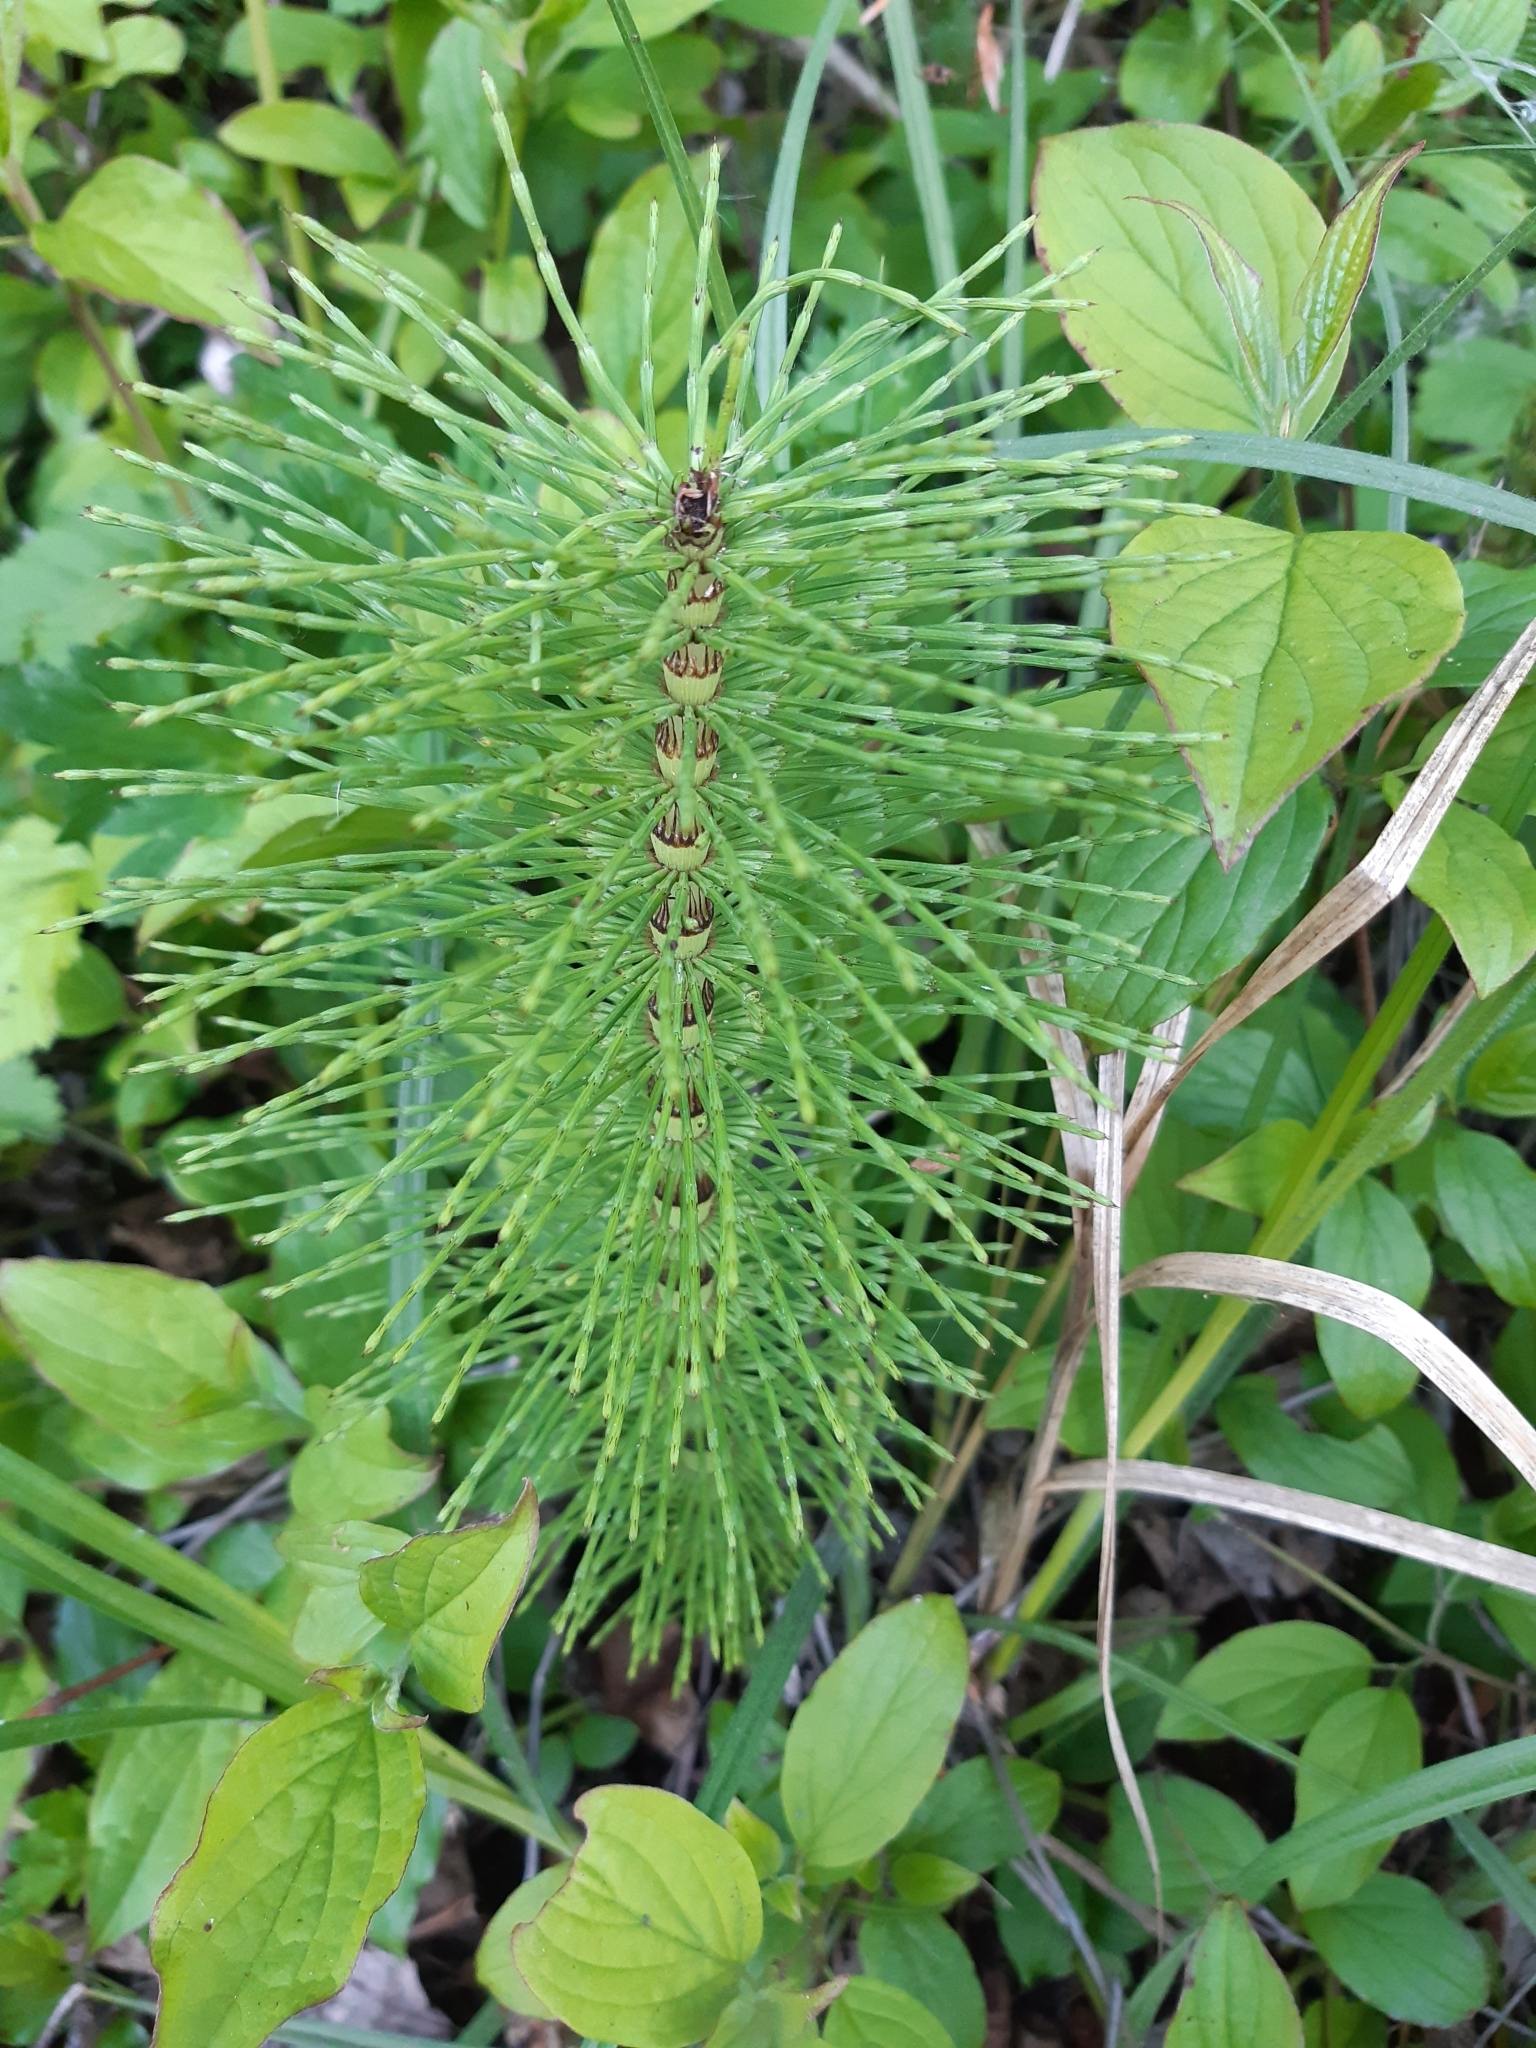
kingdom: Plantae
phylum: Tracheophyta
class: Polypodiopsida
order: Equisetales
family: Equisetaceae
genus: Equisetum
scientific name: Equisetum telmateia
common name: Great horsetail
